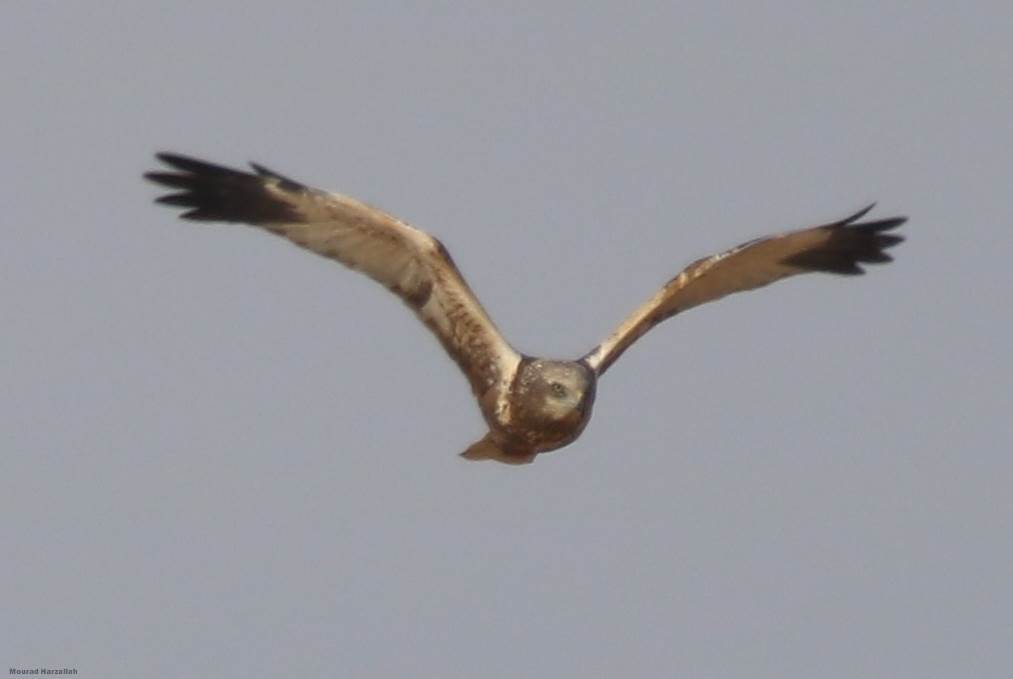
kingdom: Animalia
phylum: Chordata
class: Aves
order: Accipitriformes
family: Accipitridae
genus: Circus
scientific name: Circus aeruginosus
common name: Western marsh harrier
